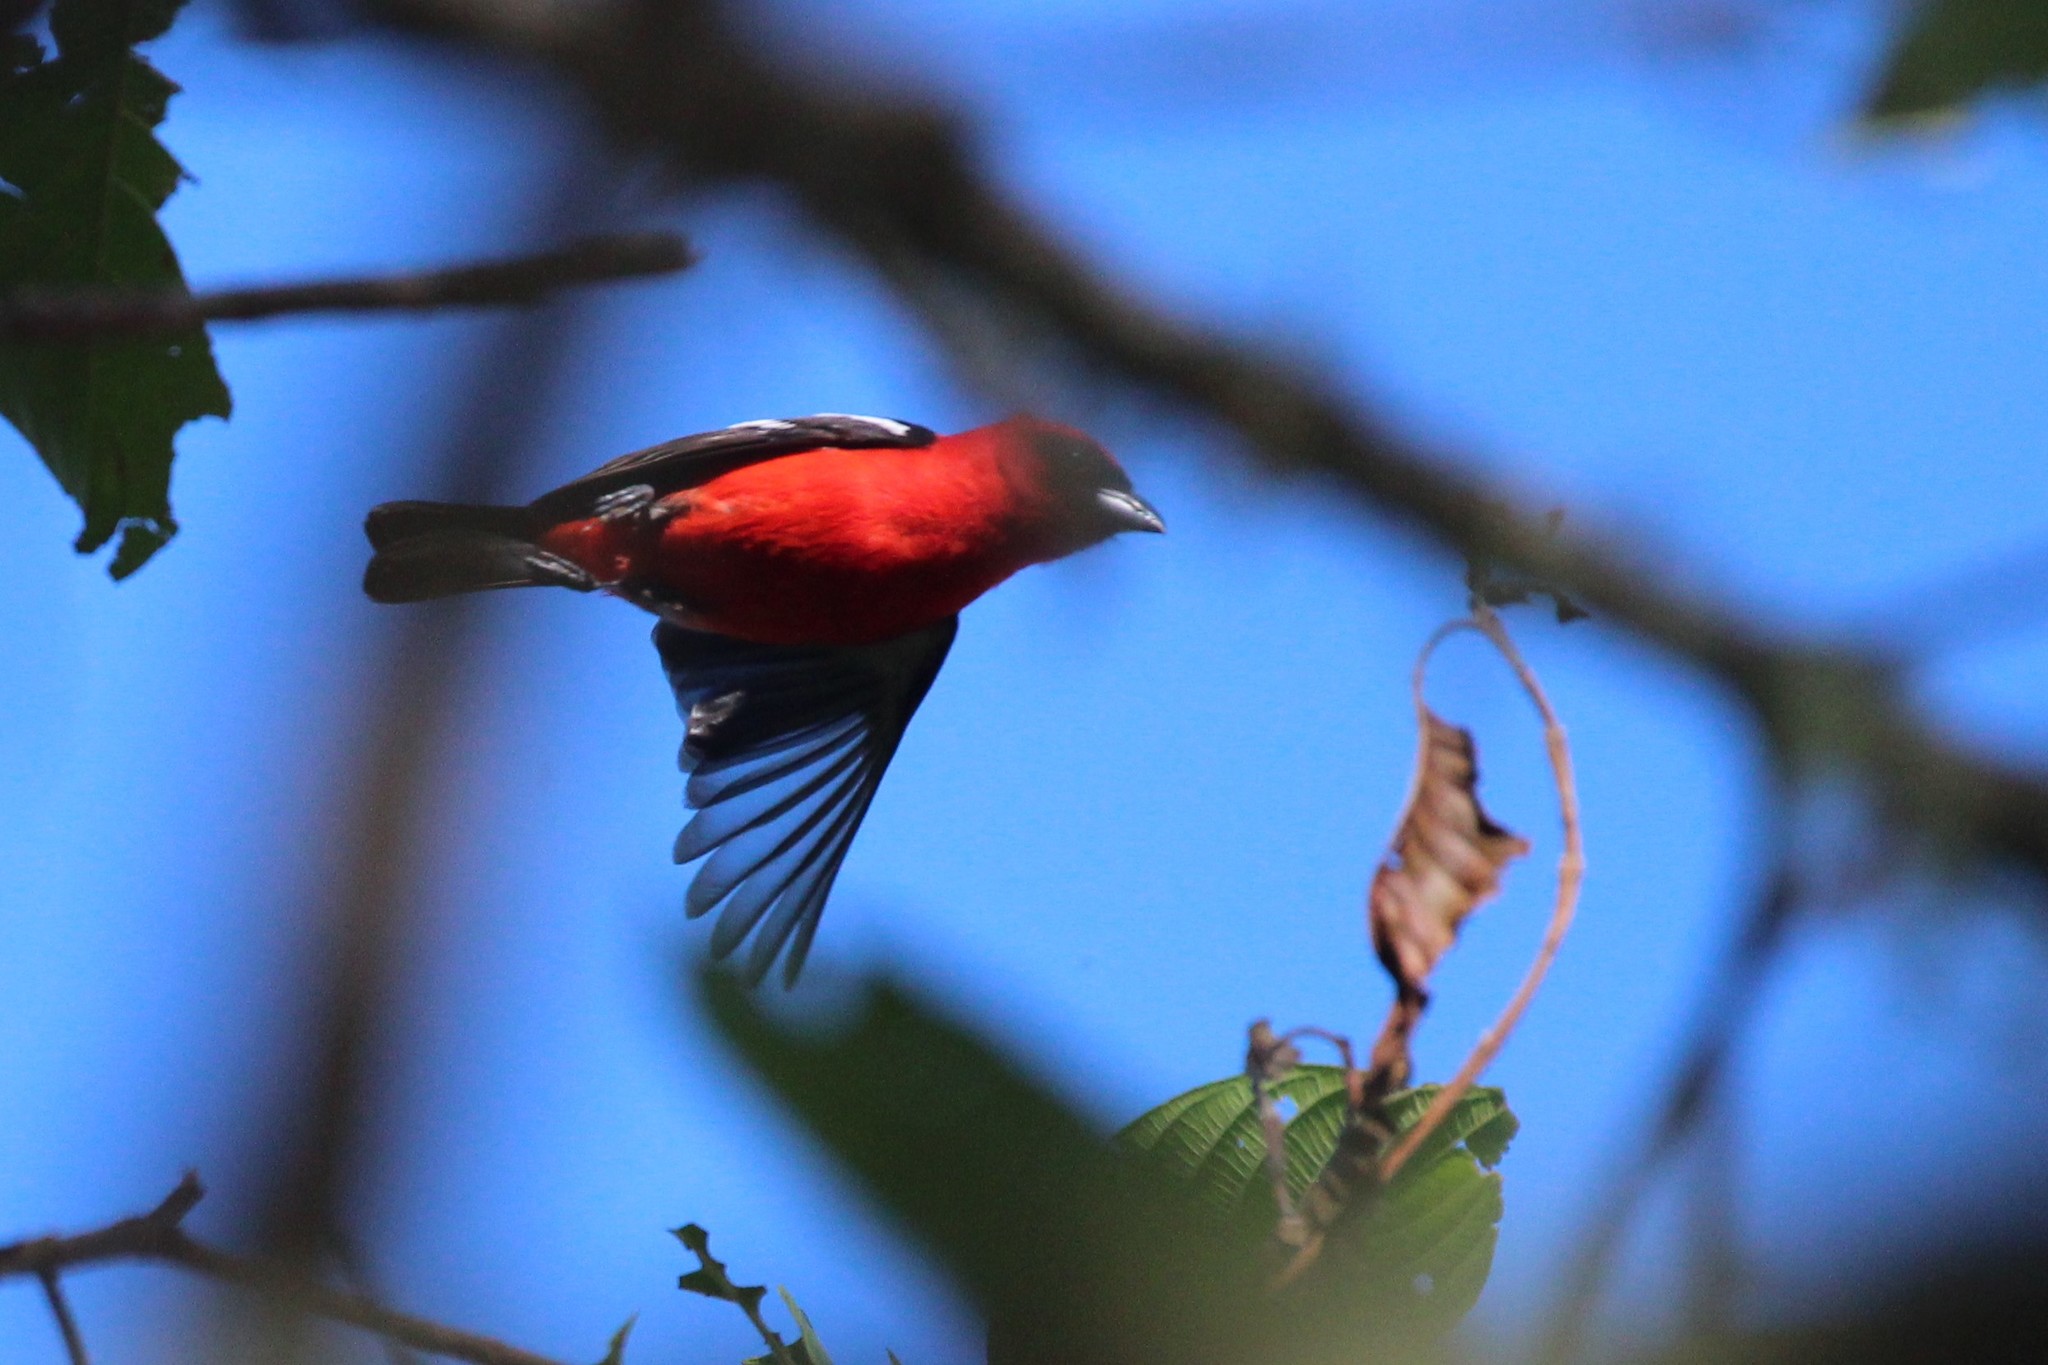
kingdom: Animalia
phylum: Chordata
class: Aves
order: Passeriformes
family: Cardinalidae
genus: Piranga
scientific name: Piranga leucoptera
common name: White-winged tanager
